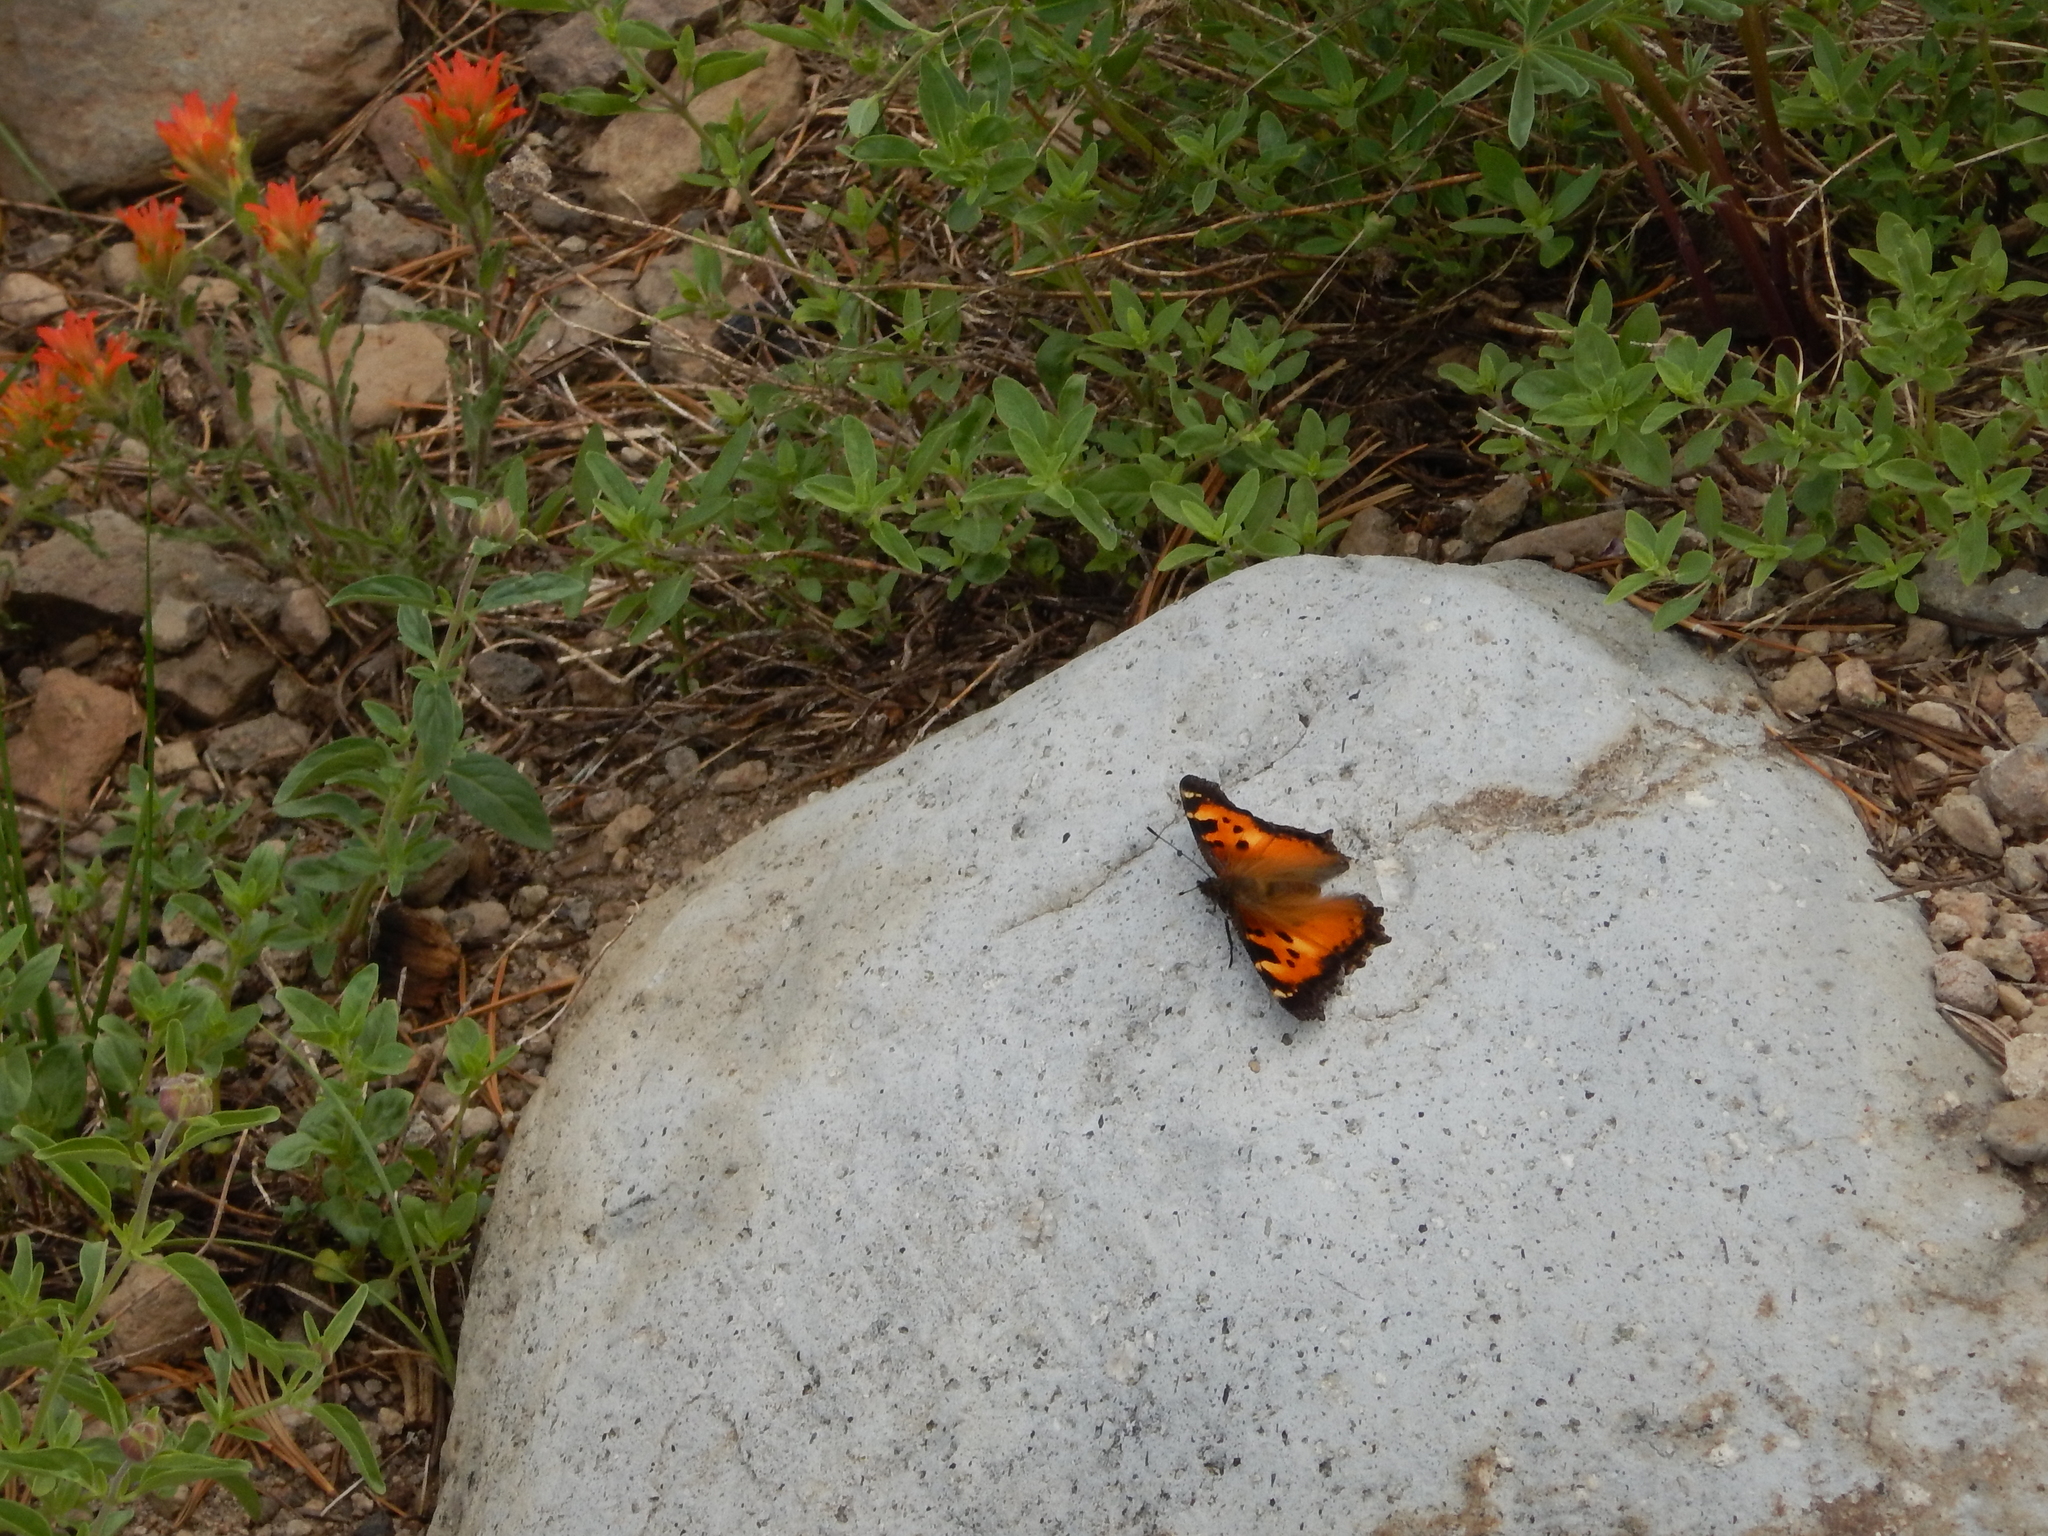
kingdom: Animalia
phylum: Arthropoda
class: Insecta
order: Lepidoptera
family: Nymphalidae
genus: Nymphalis
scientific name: Nymphalis californica
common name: California tortoiseshell
